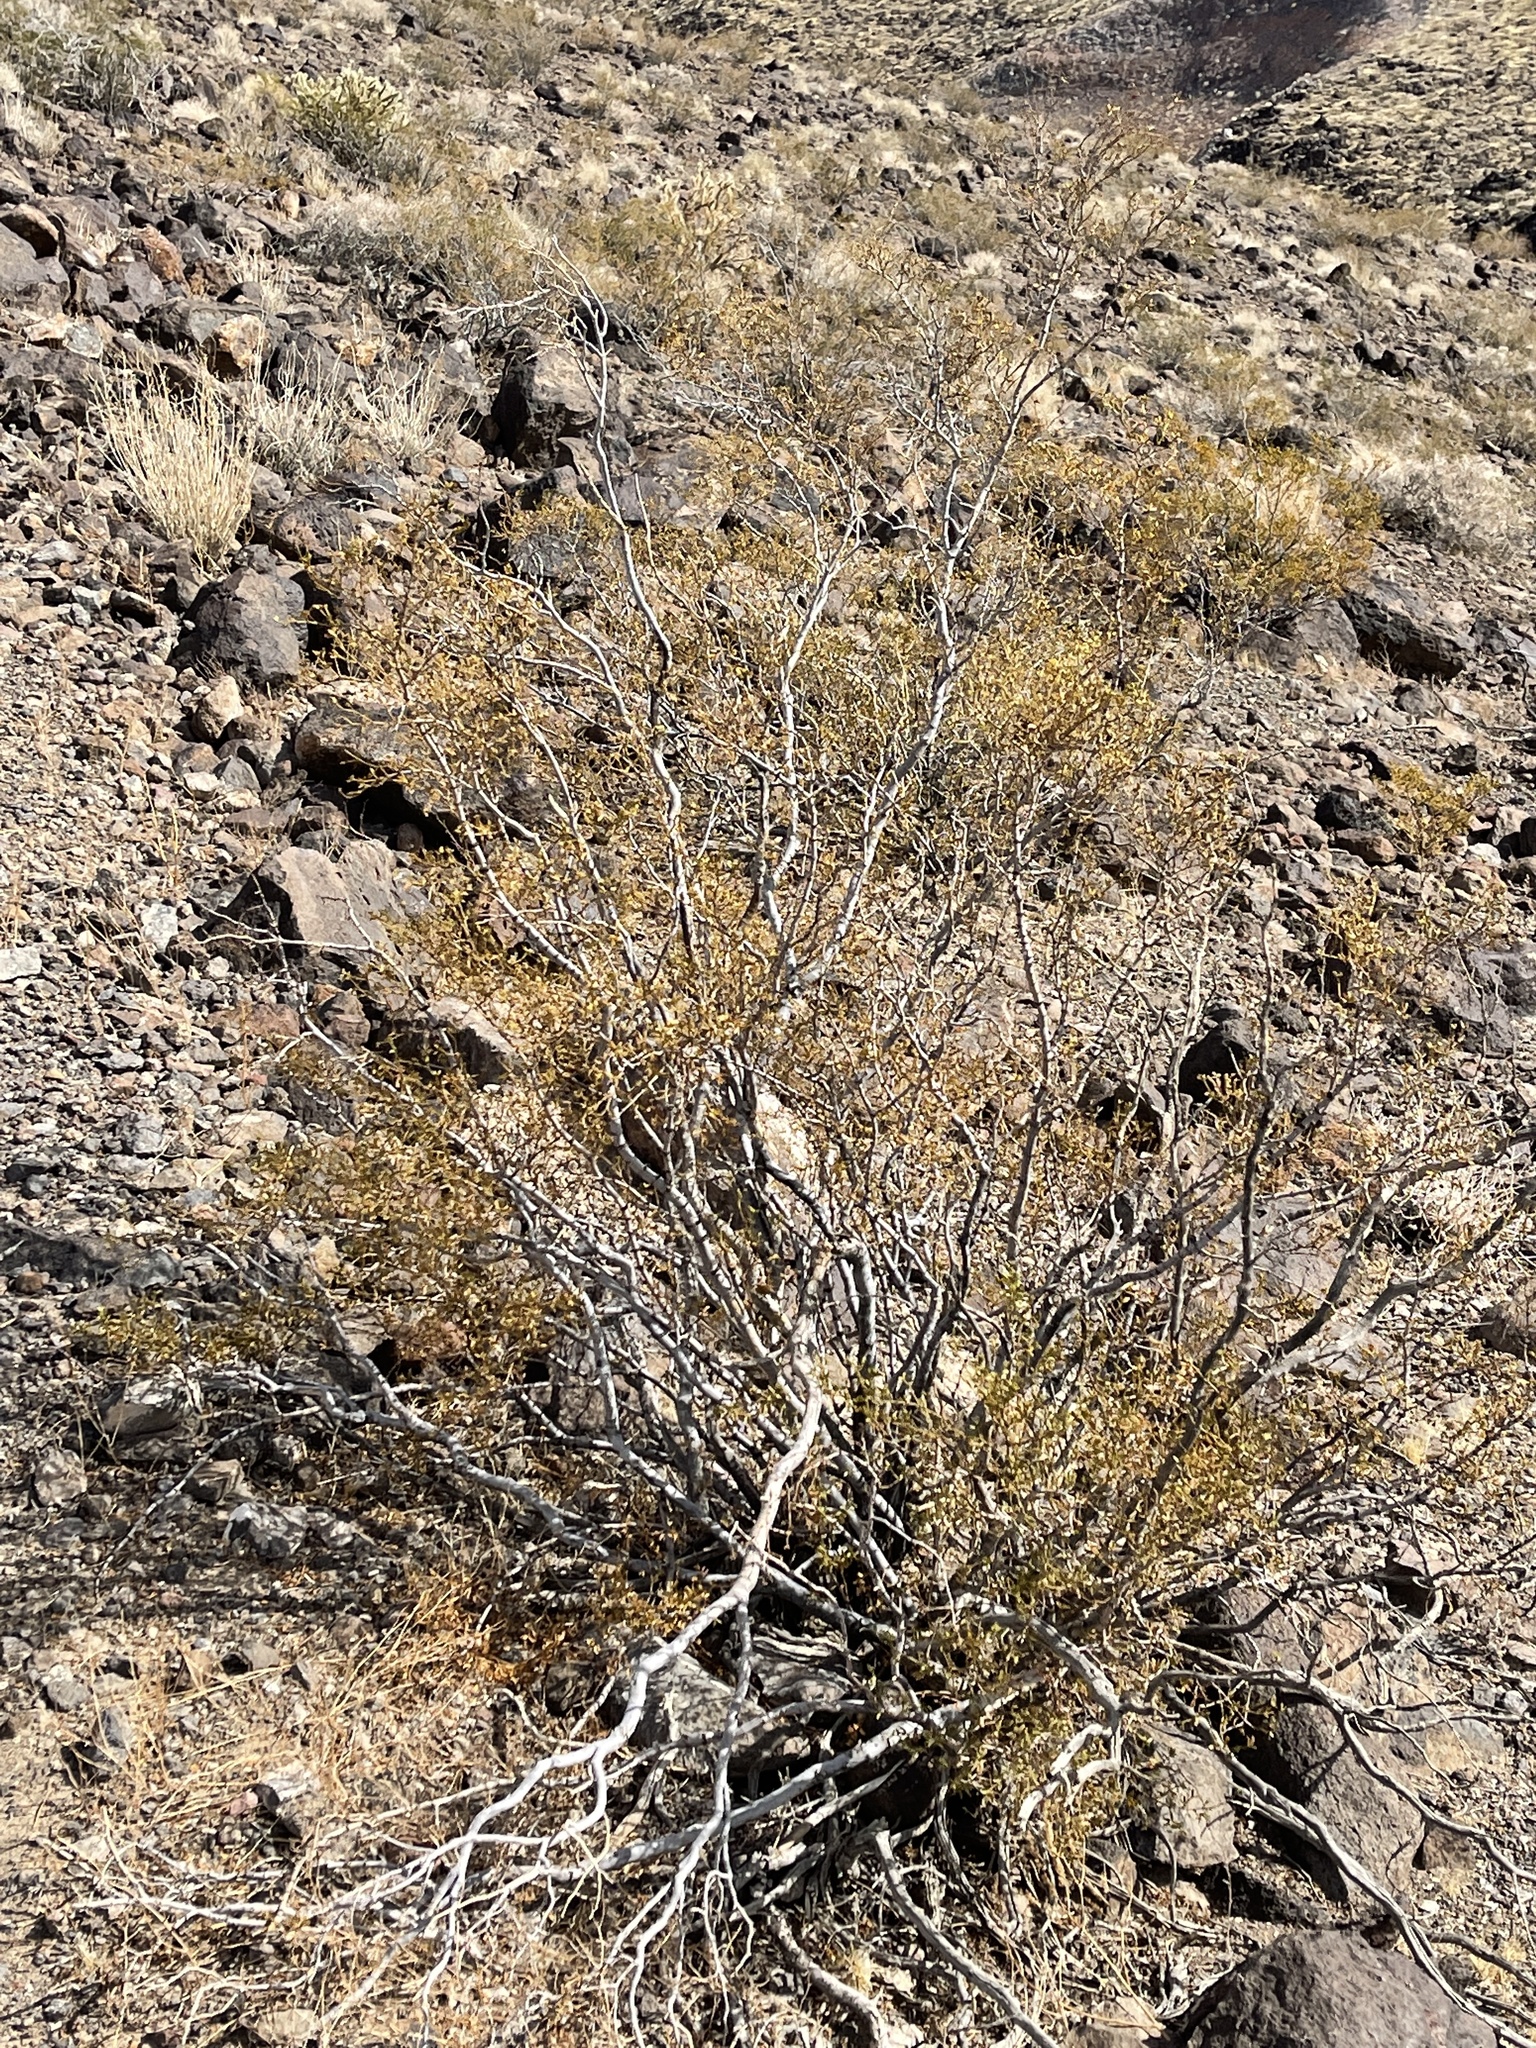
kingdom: Plantae
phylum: Tracheophyta
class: Magnoliopsida
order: Zygophyllales
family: Zygophyllaceae
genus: Larrea
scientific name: Larrea tridentata
